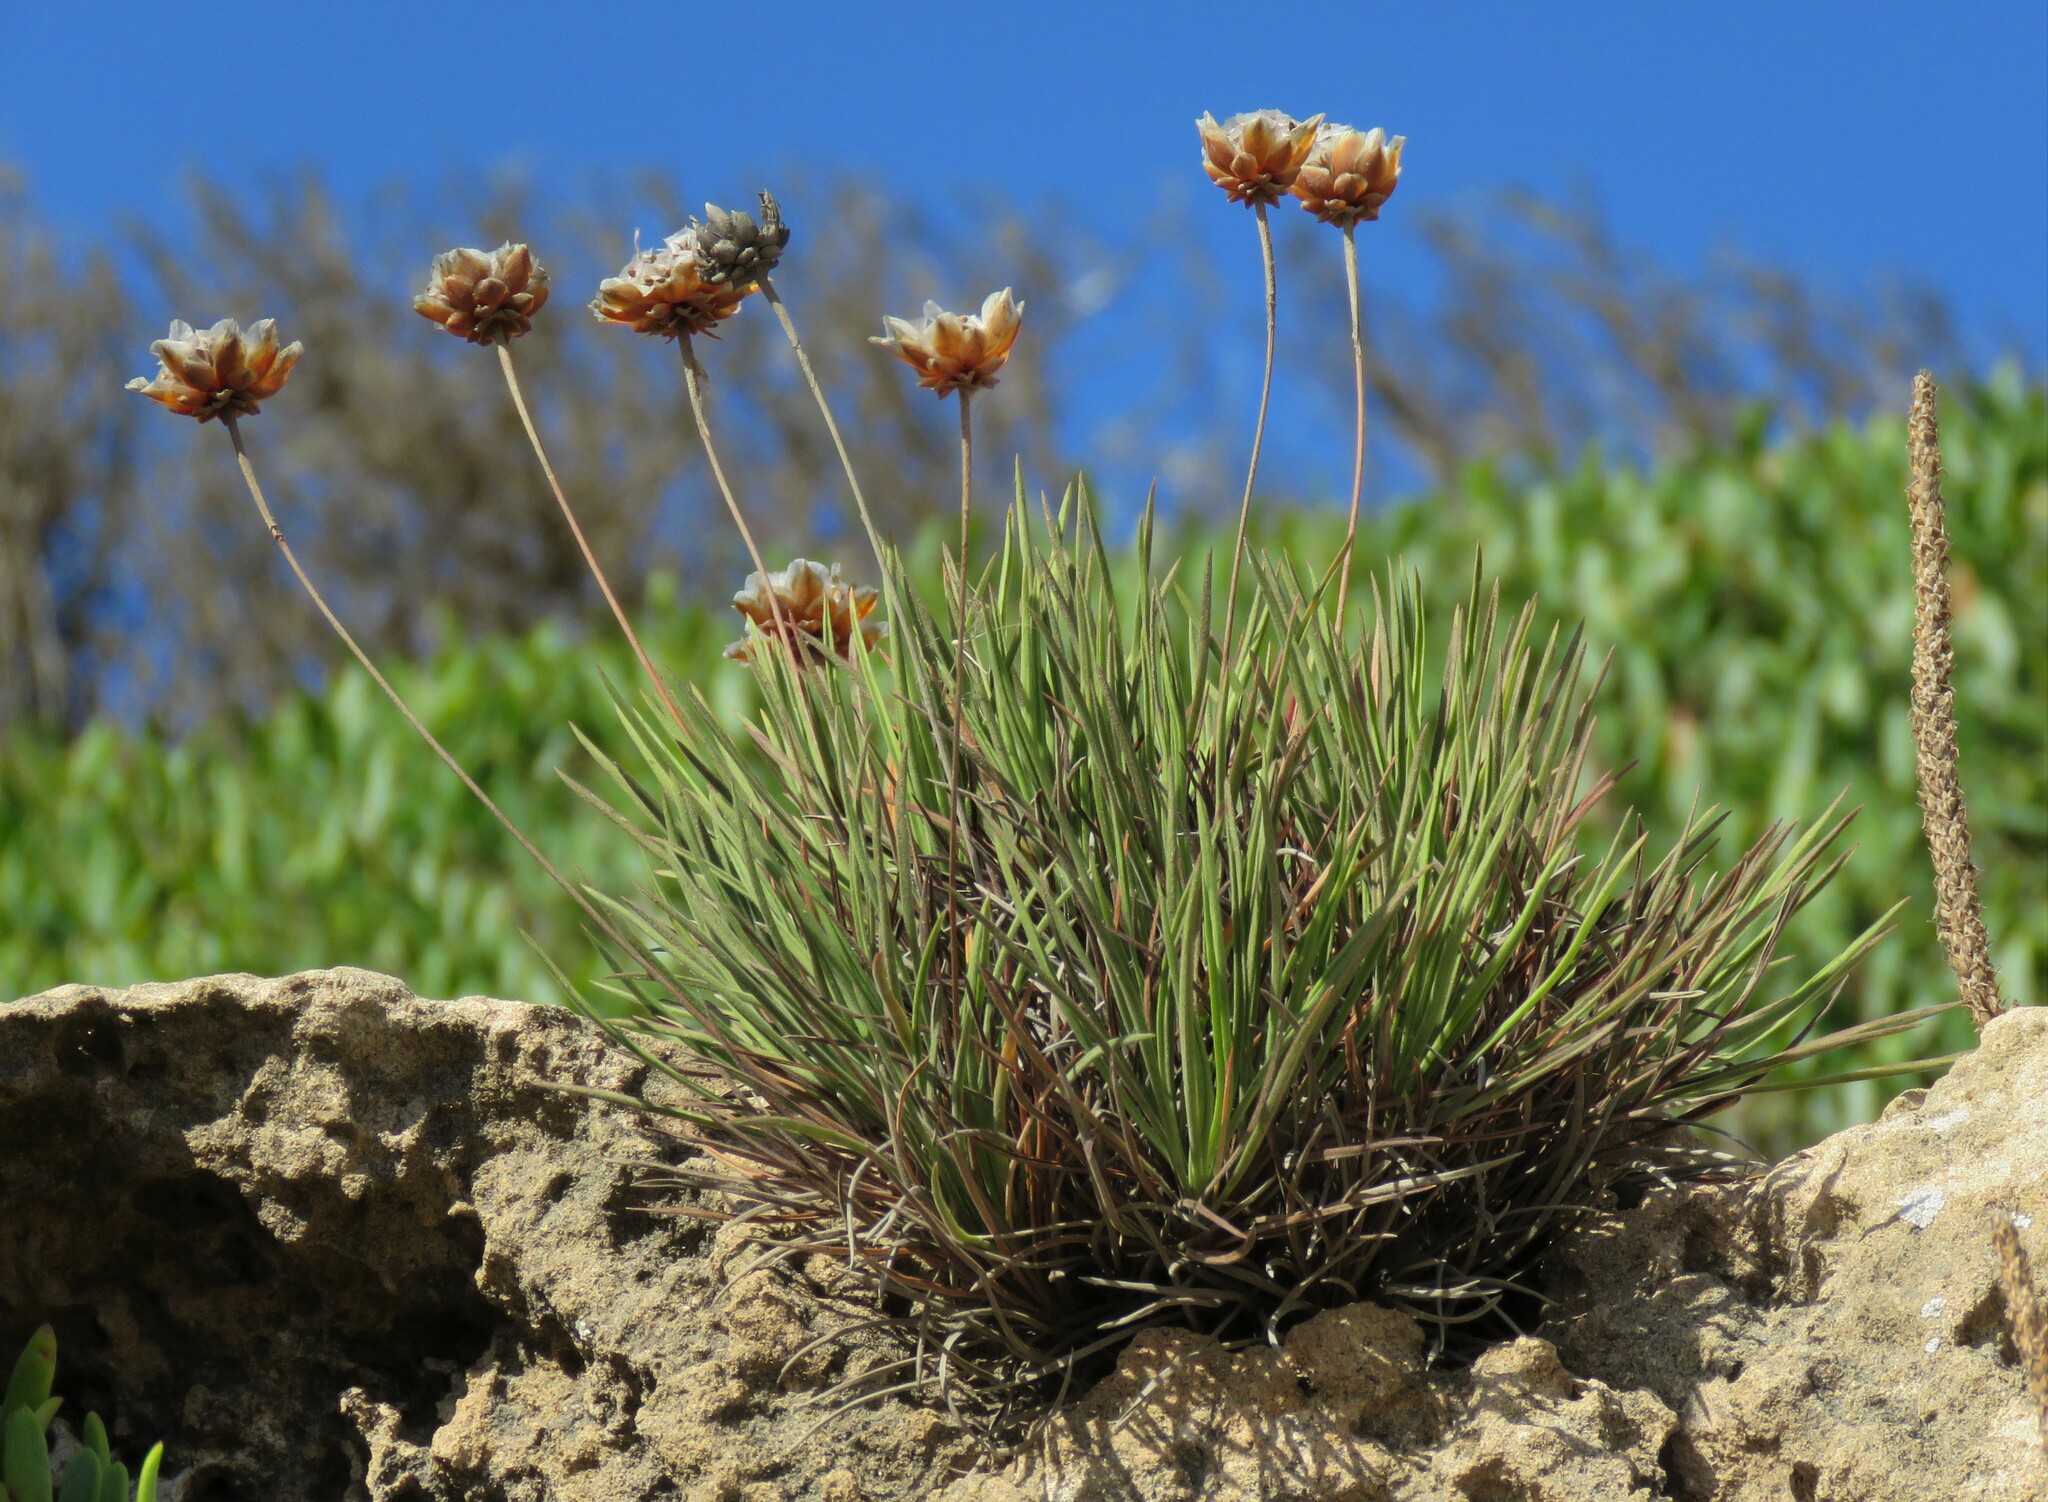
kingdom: Plantae
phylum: Tracheophyta
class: Magnoliopsida
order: Caryophyllales
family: Plumbaginaceae
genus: Armeria
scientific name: Armeria pungens
